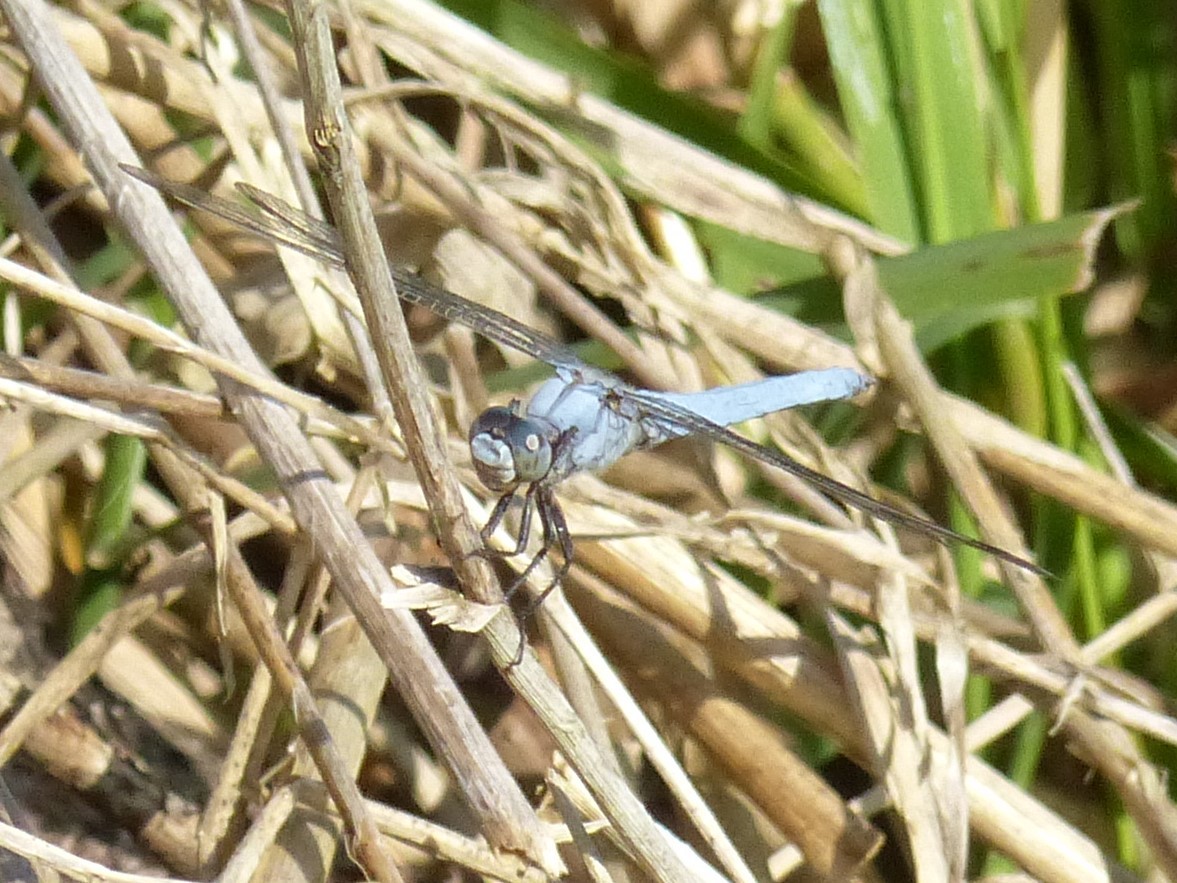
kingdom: Animalia
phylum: Arthropoda
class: Insecta
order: Odonata
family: Libellulidae
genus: Orthetrum
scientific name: Orthetrum brunneum
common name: Southern skimmer
